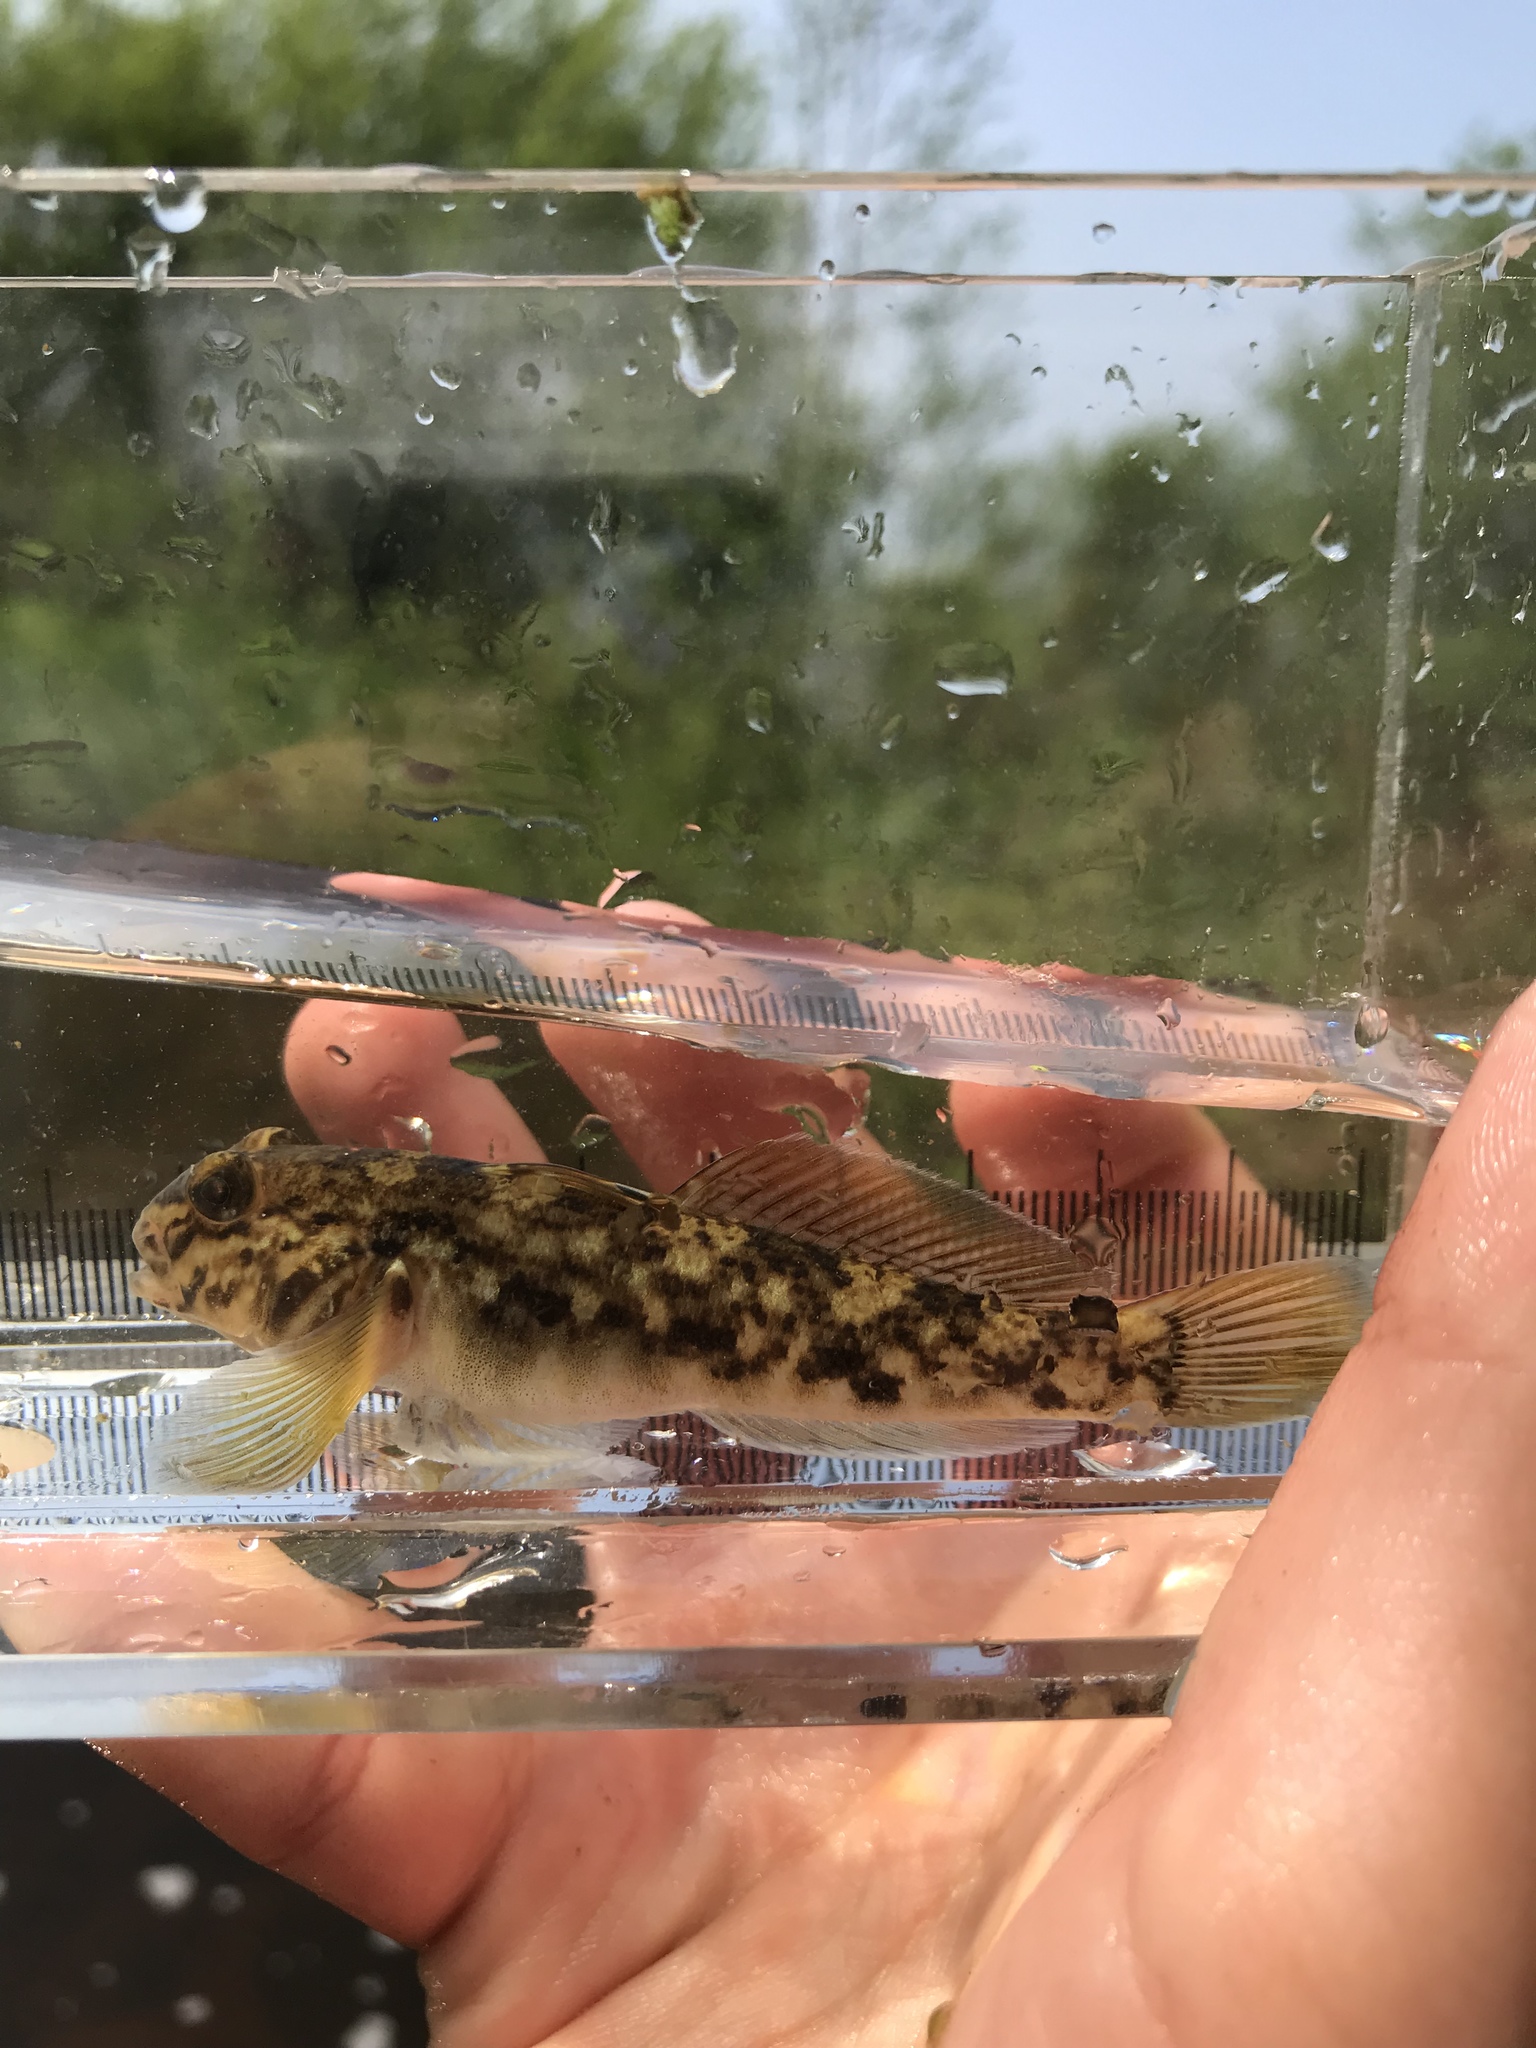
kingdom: Animalia
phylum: Chordata
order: Perciformes
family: Gobiidae
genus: Neogobius
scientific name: Neogobius melanostomus
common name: Round goby
